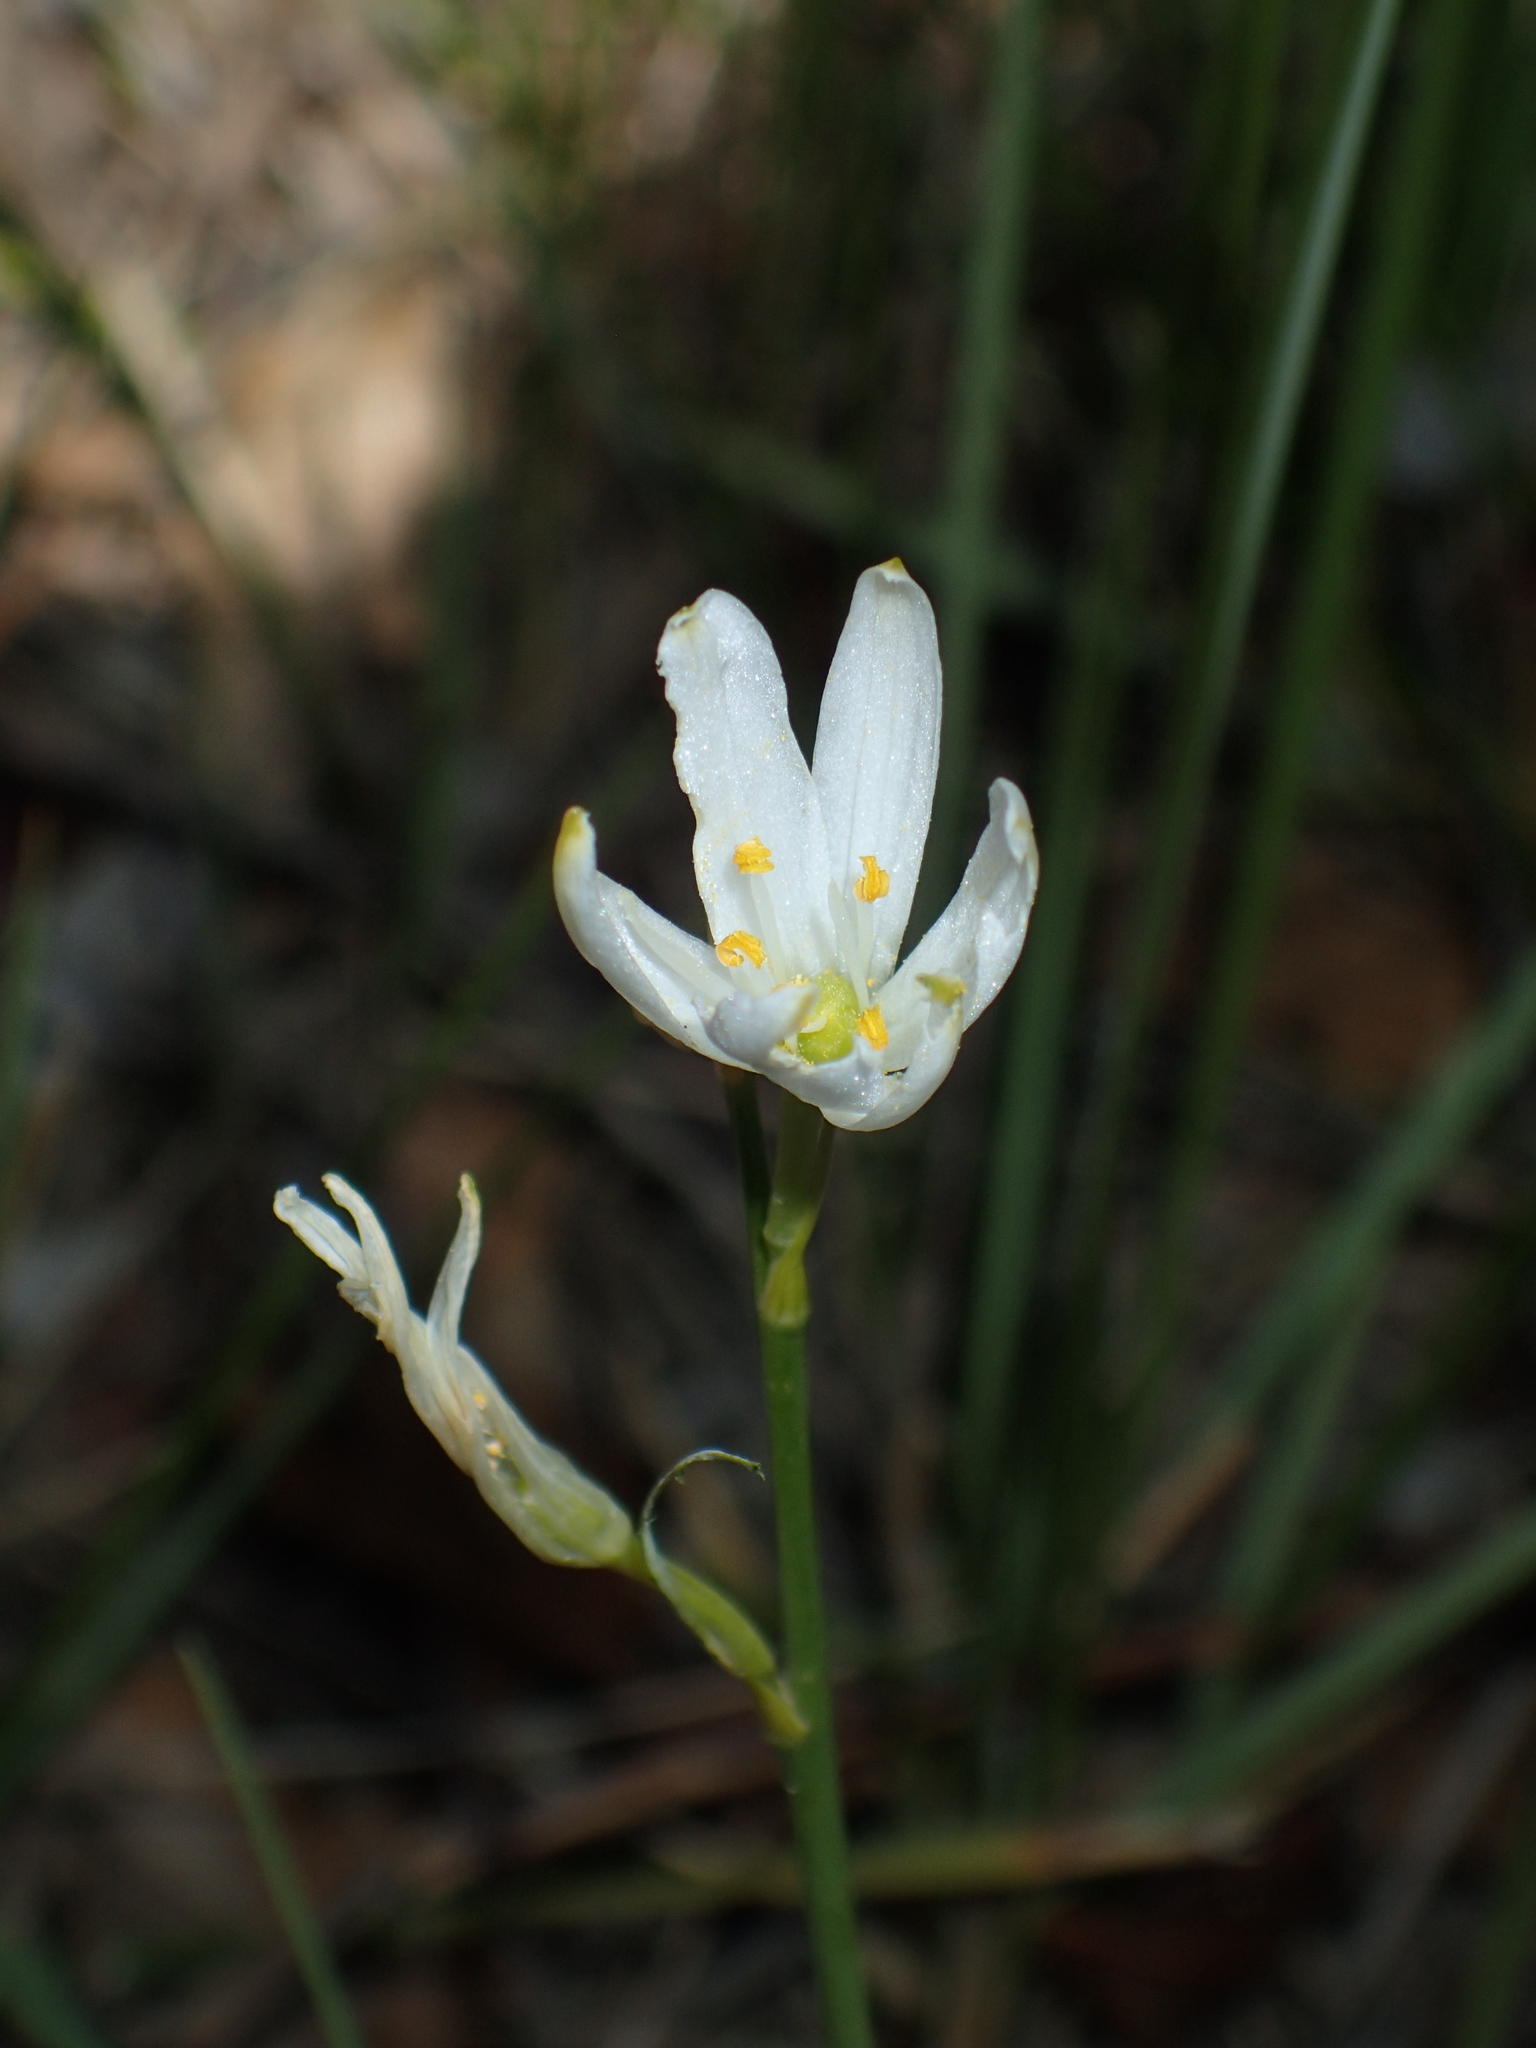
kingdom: Plantae
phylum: Tracheophyta
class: Liliopsida
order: Asparagales
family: Asparagaceae
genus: Anthericum
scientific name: Anthericum liliago
